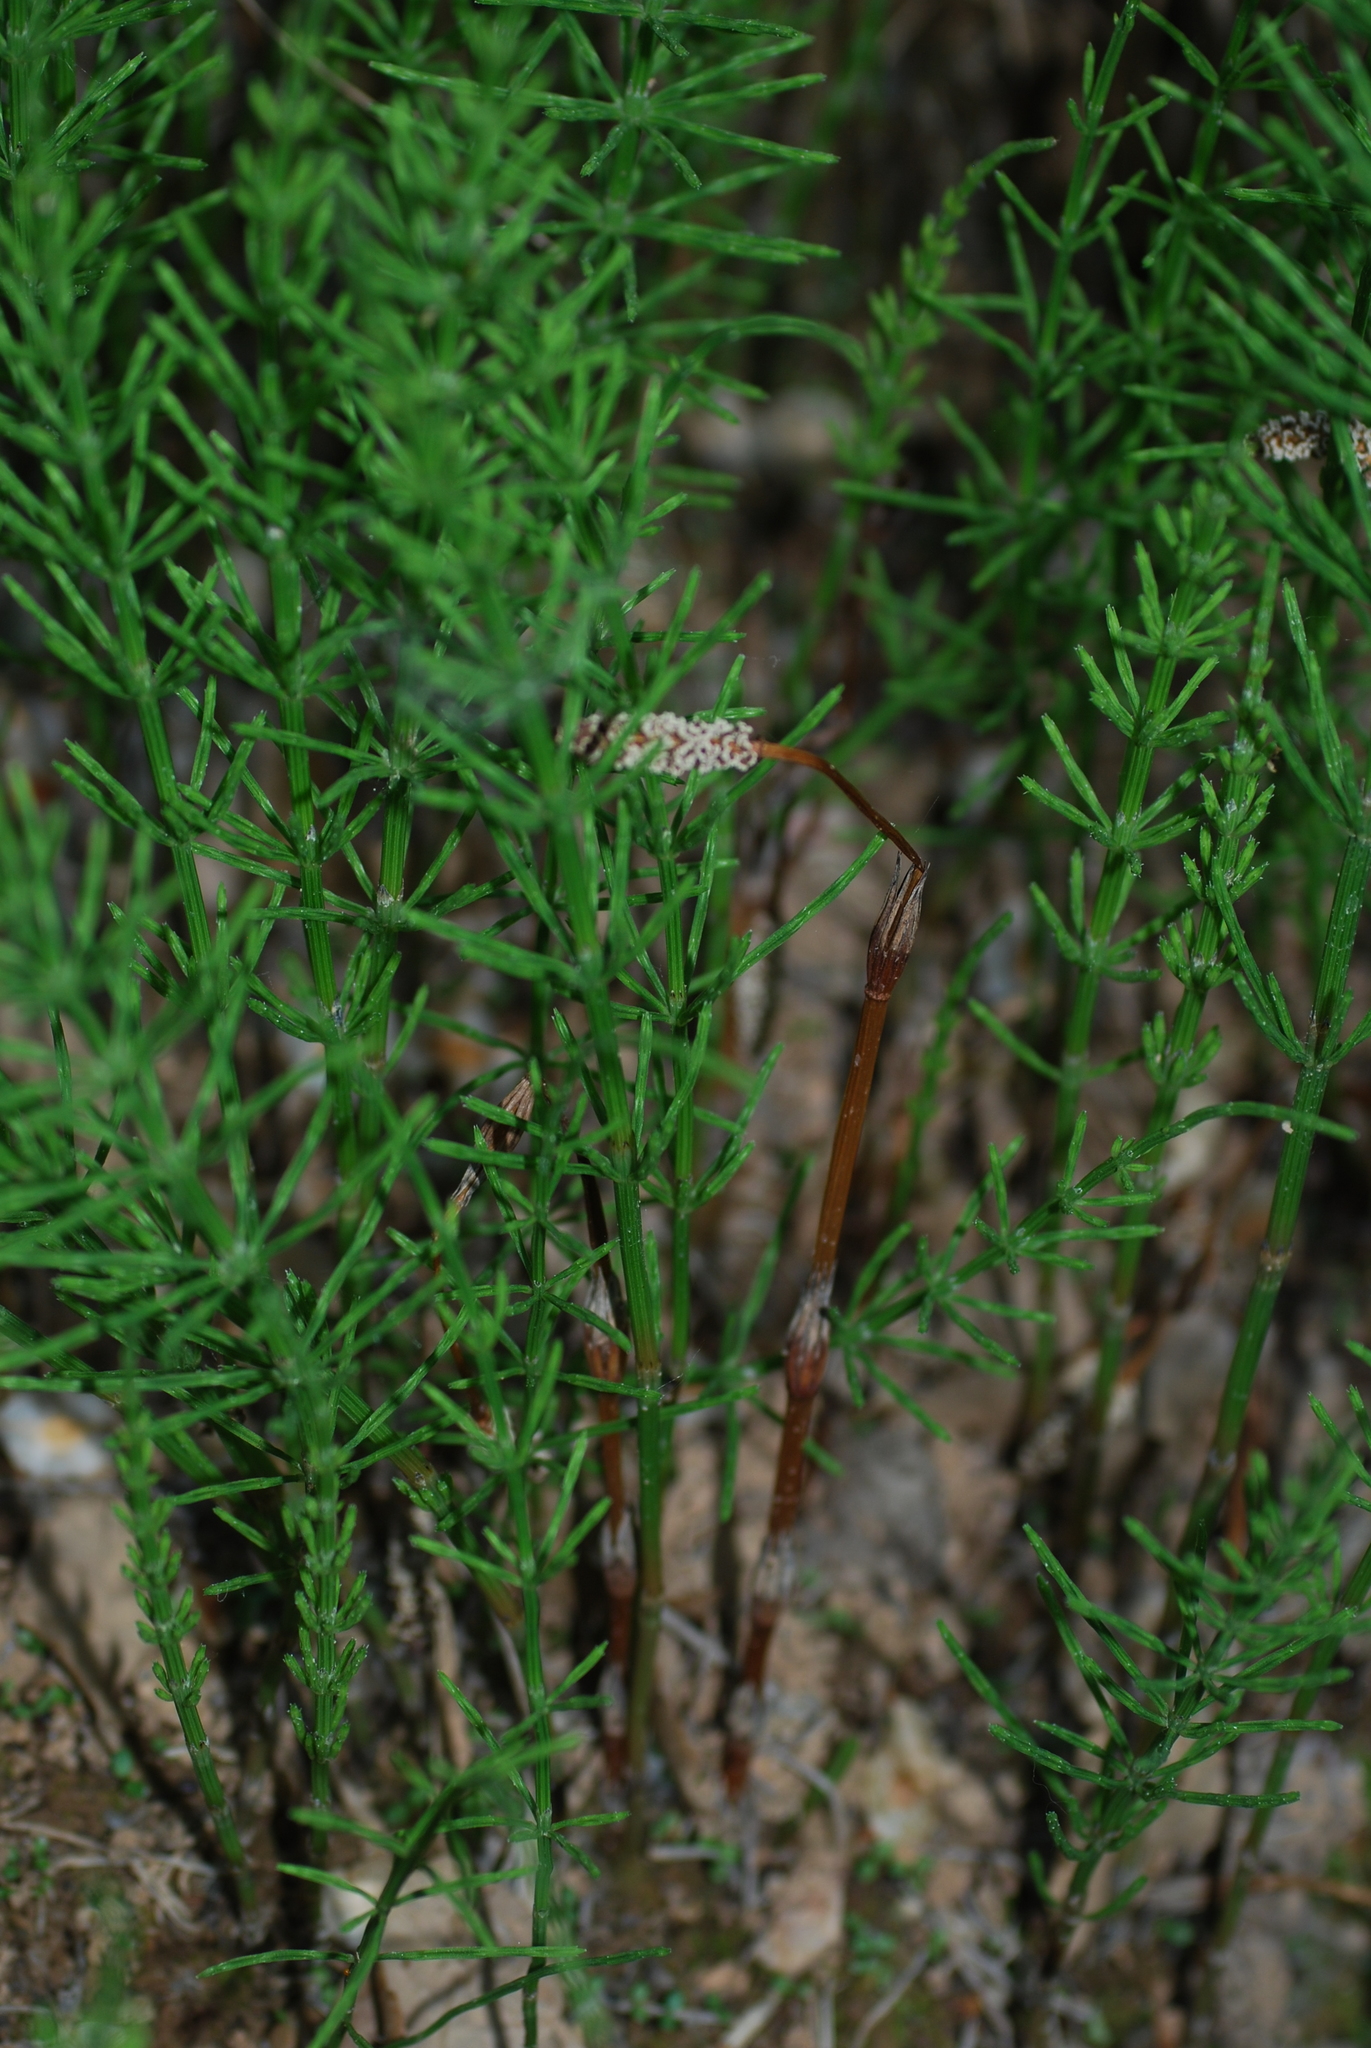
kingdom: Plantae
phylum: Tracheophyta
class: Polypodiopsida
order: Equisetales
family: Equisetaceae
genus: Equisetum
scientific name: Equisetum arvense
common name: Field horsetail
